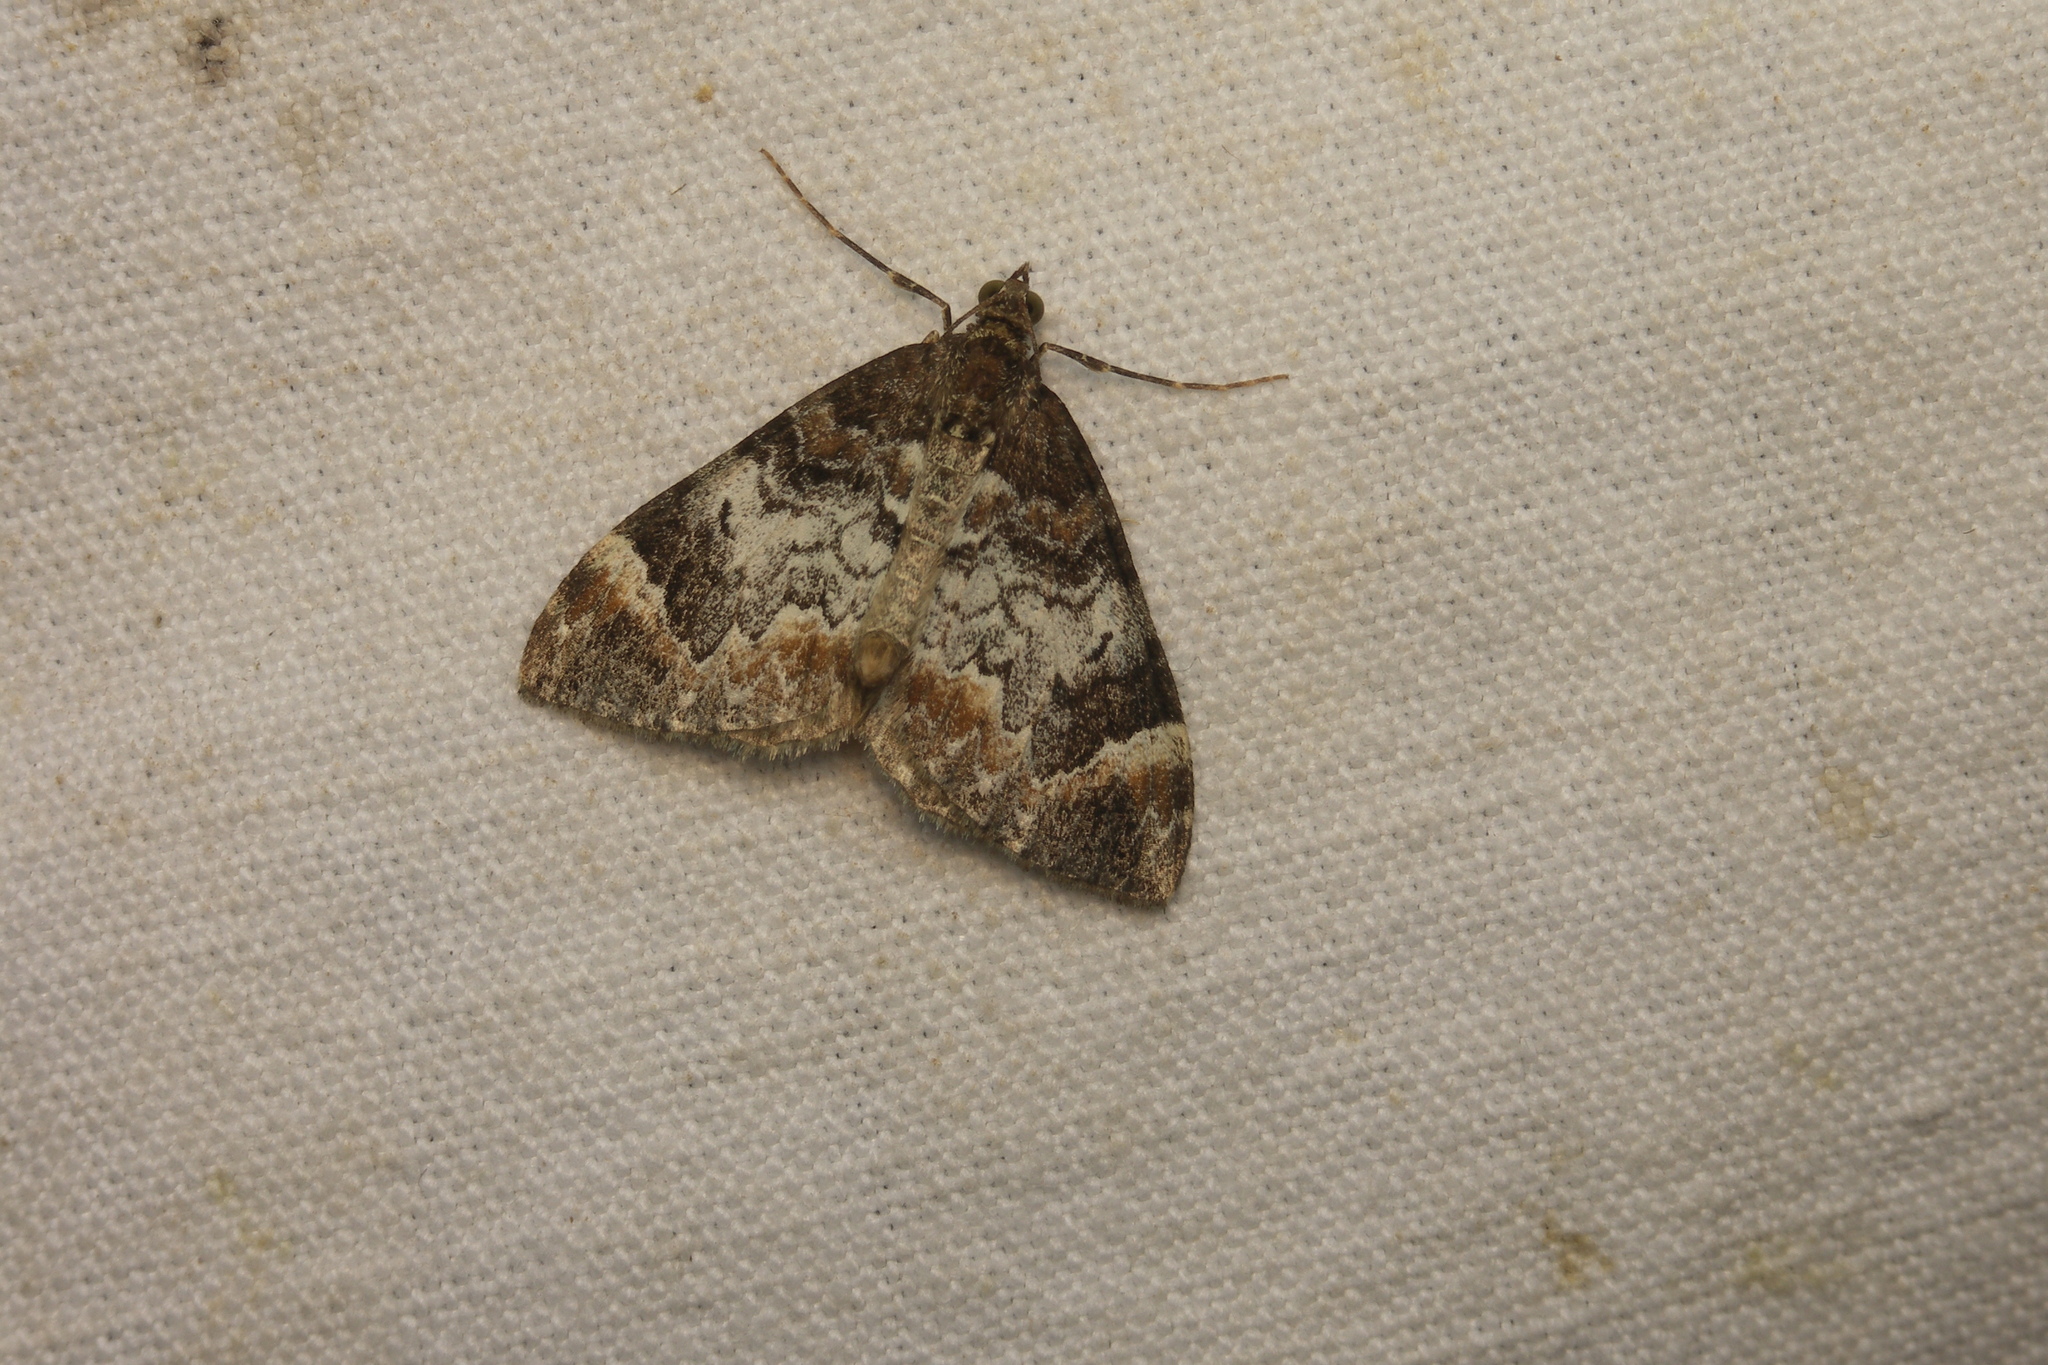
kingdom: Animalia
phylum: Arthropoda
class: Insecta
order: Lepidoptera
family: Geometridae
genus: Dysstroma
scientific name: Dysstroma truncata
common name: Common marbled carpet
